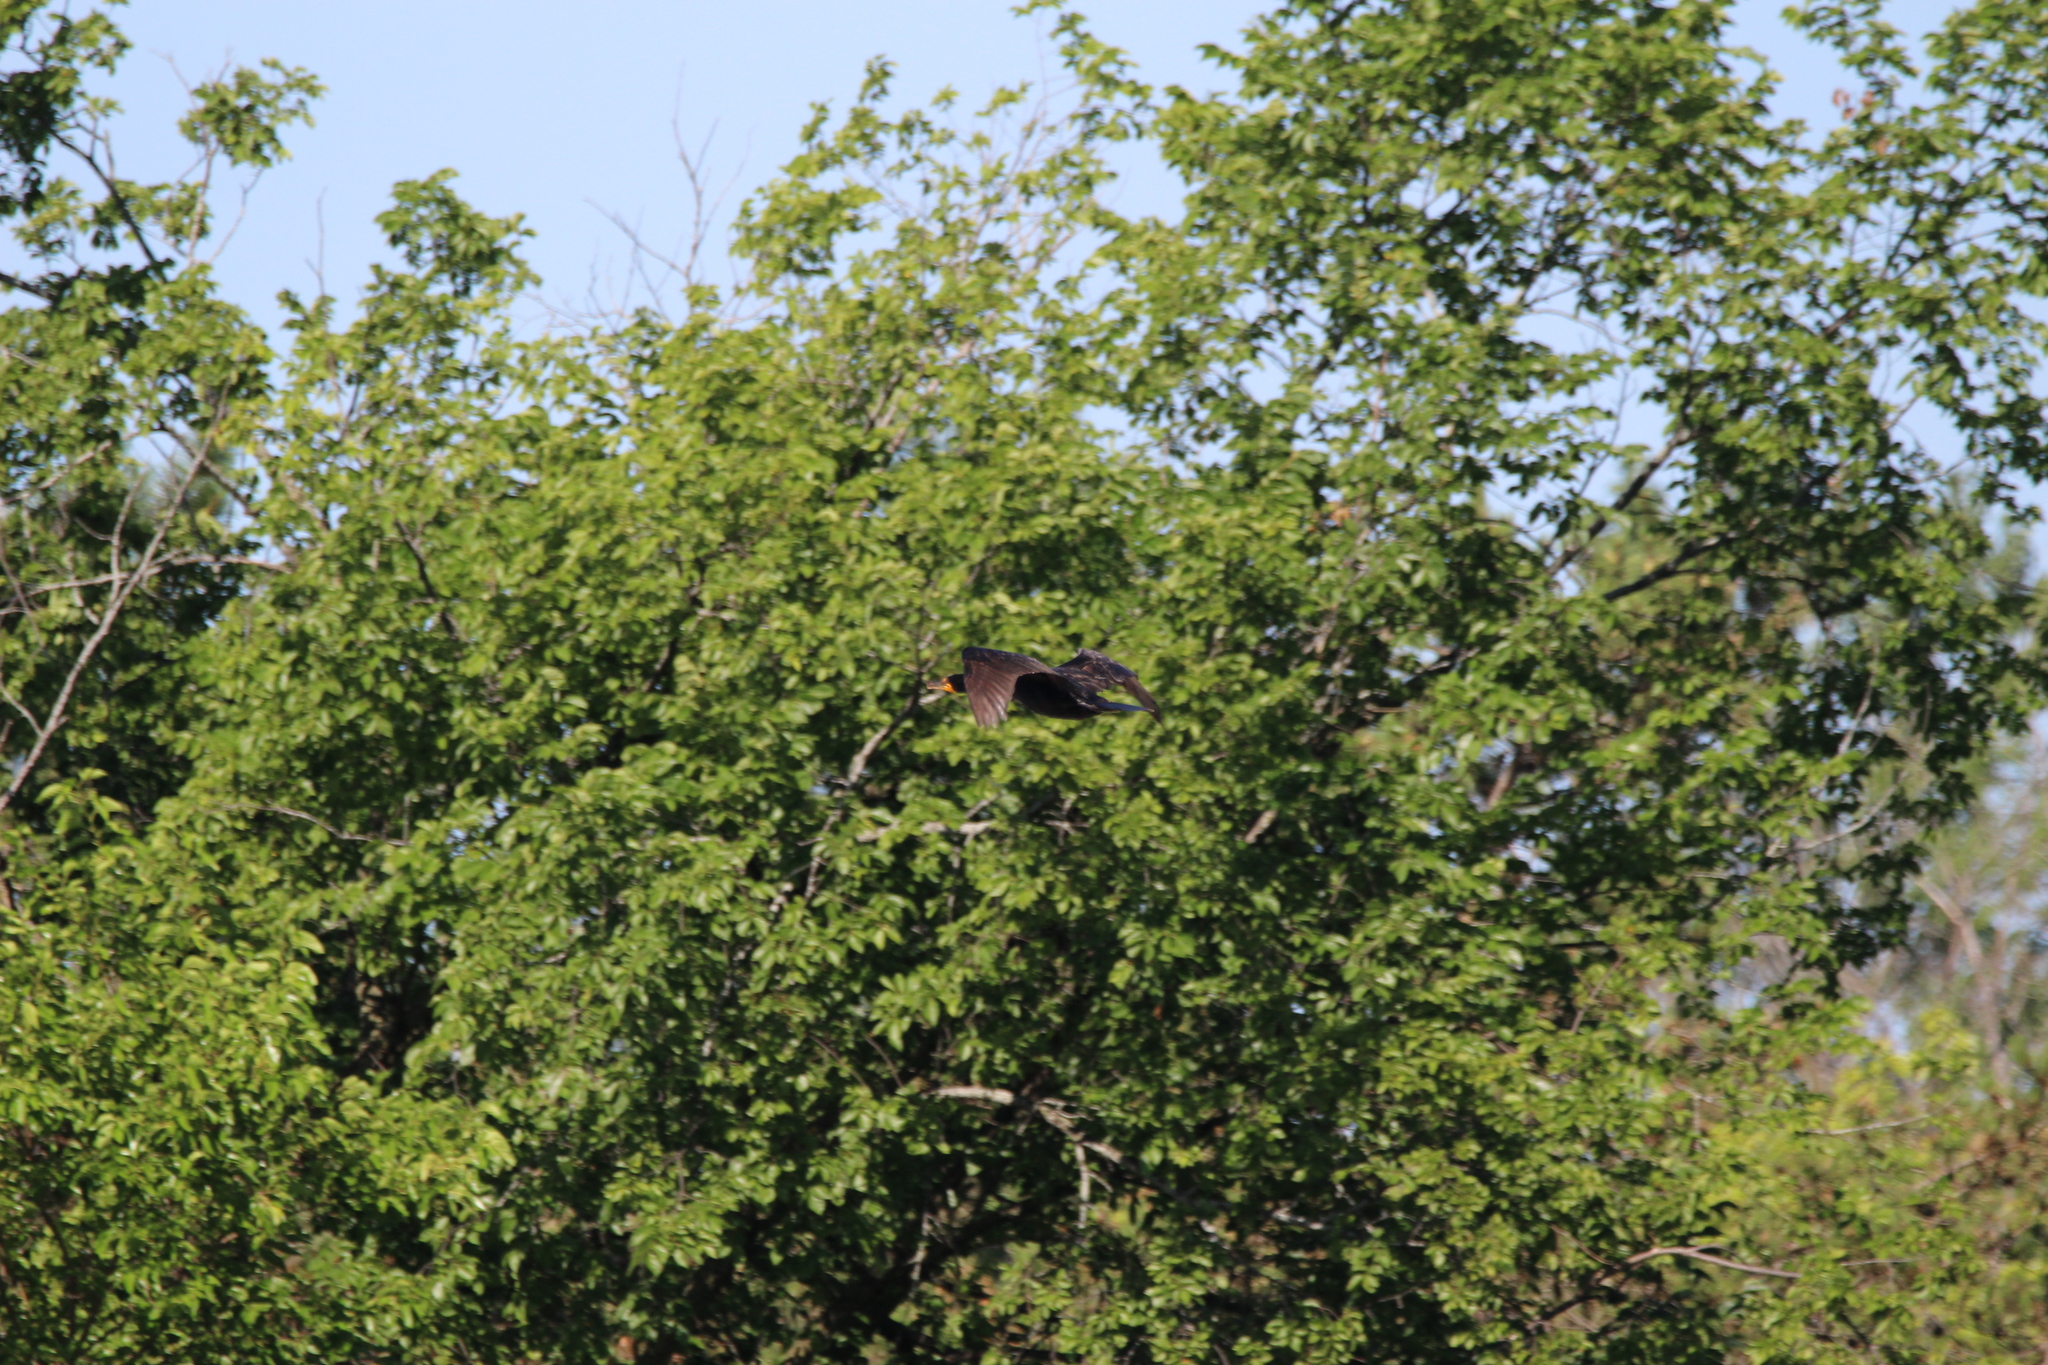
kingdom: Animalia
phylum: Chordata
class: Aves
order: Suliformes
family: Phalacrocoracidae
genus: Phalacrocorax
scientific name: Phalacrocorax auritus
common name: Double-crested cormorant
